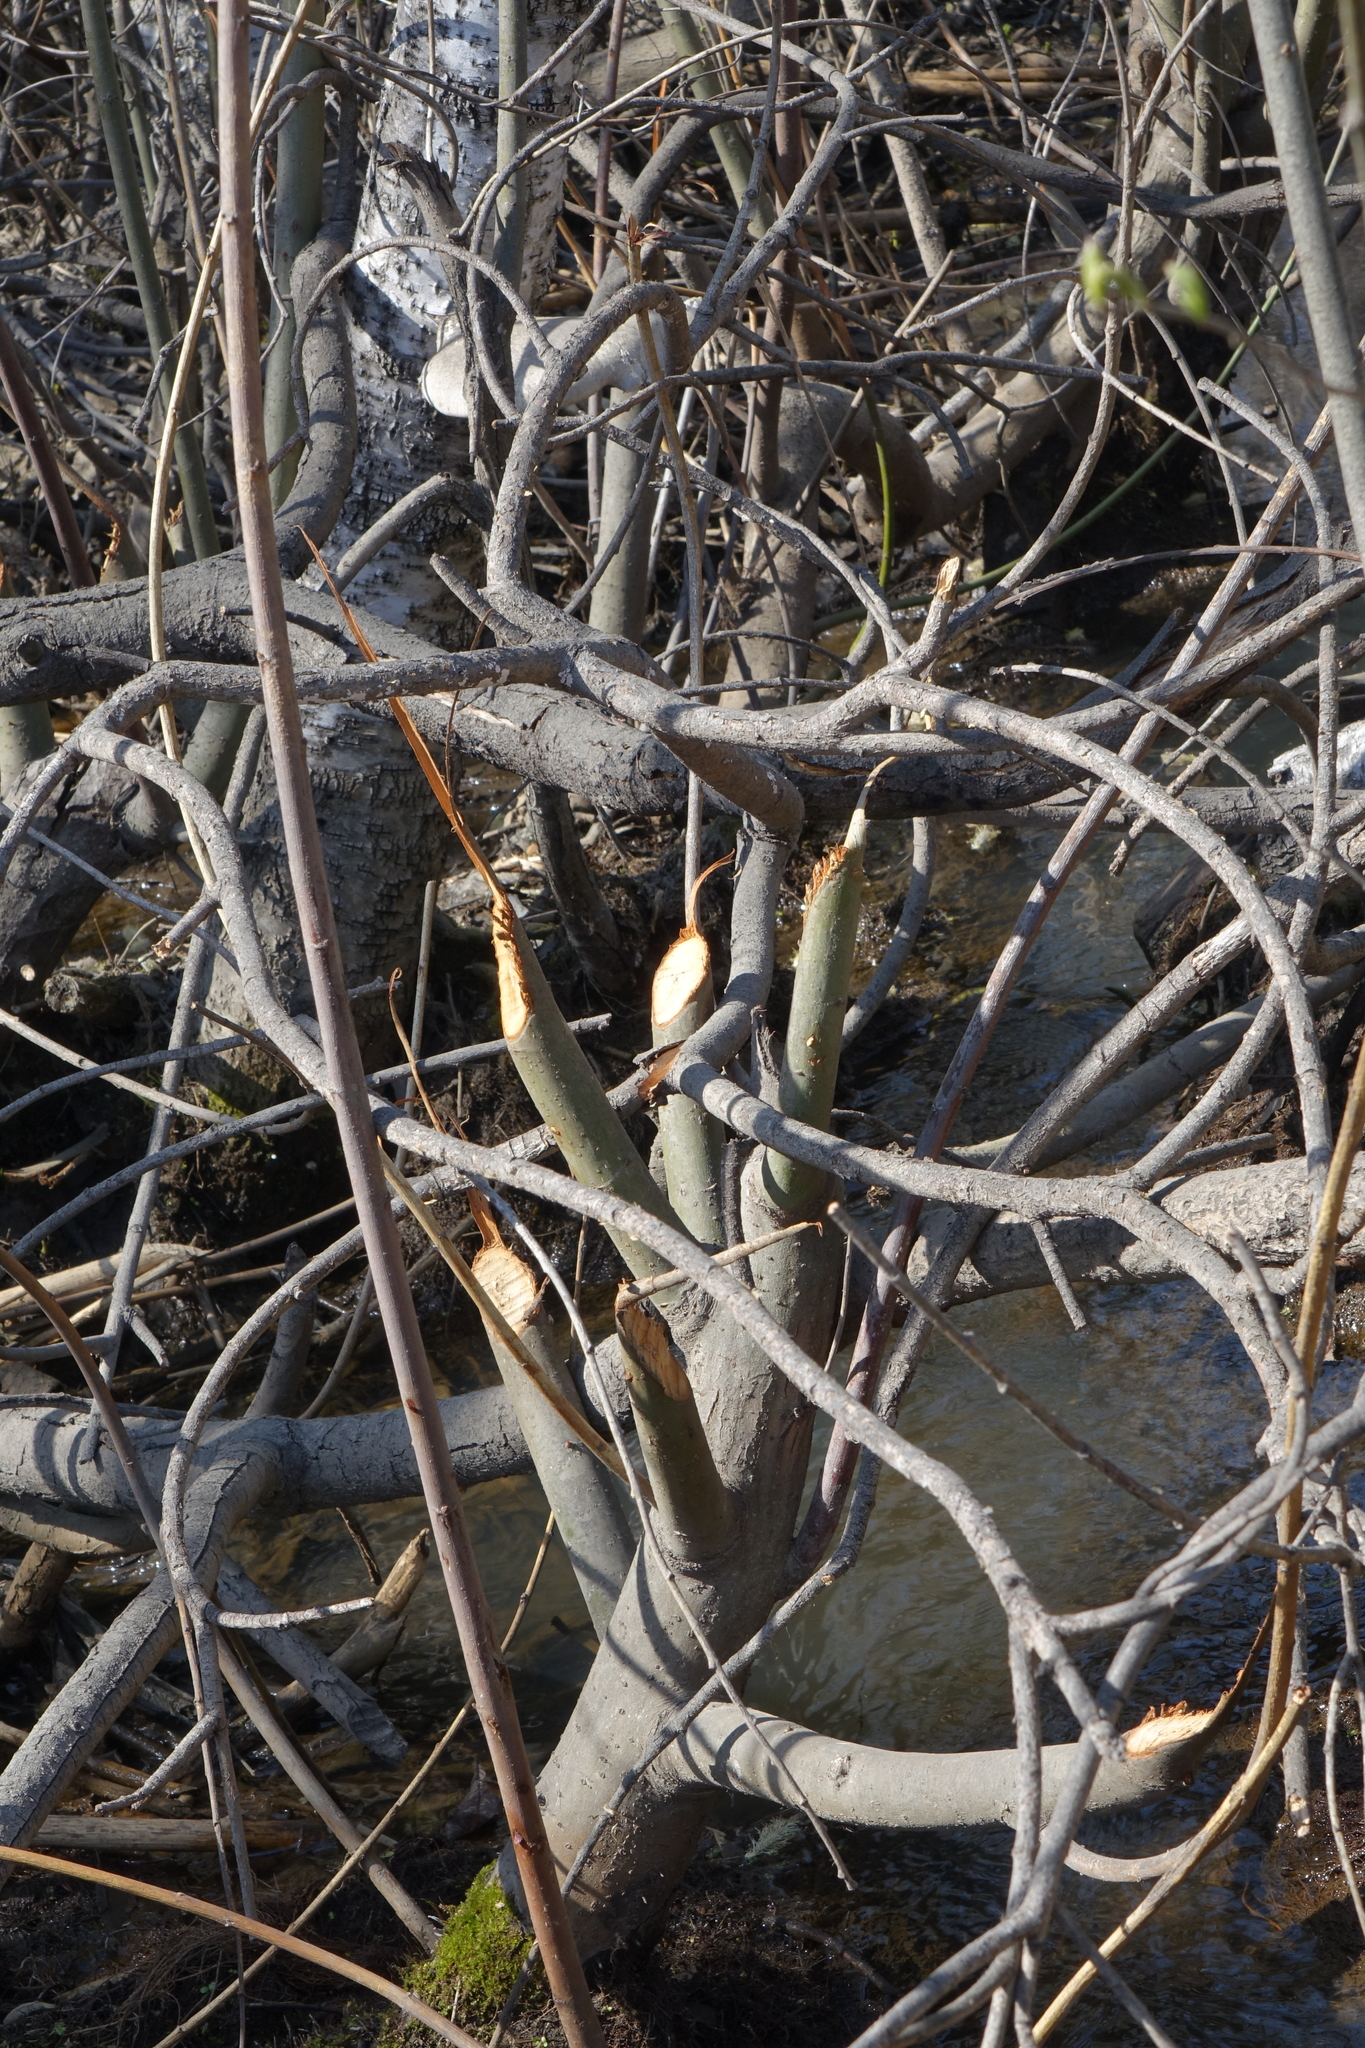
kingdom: Animalia
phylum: Chordata
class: Mammalia
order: Rodentia
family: Castoridae
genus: Castor
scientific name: Castor fiber
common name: Eurasian beaver
